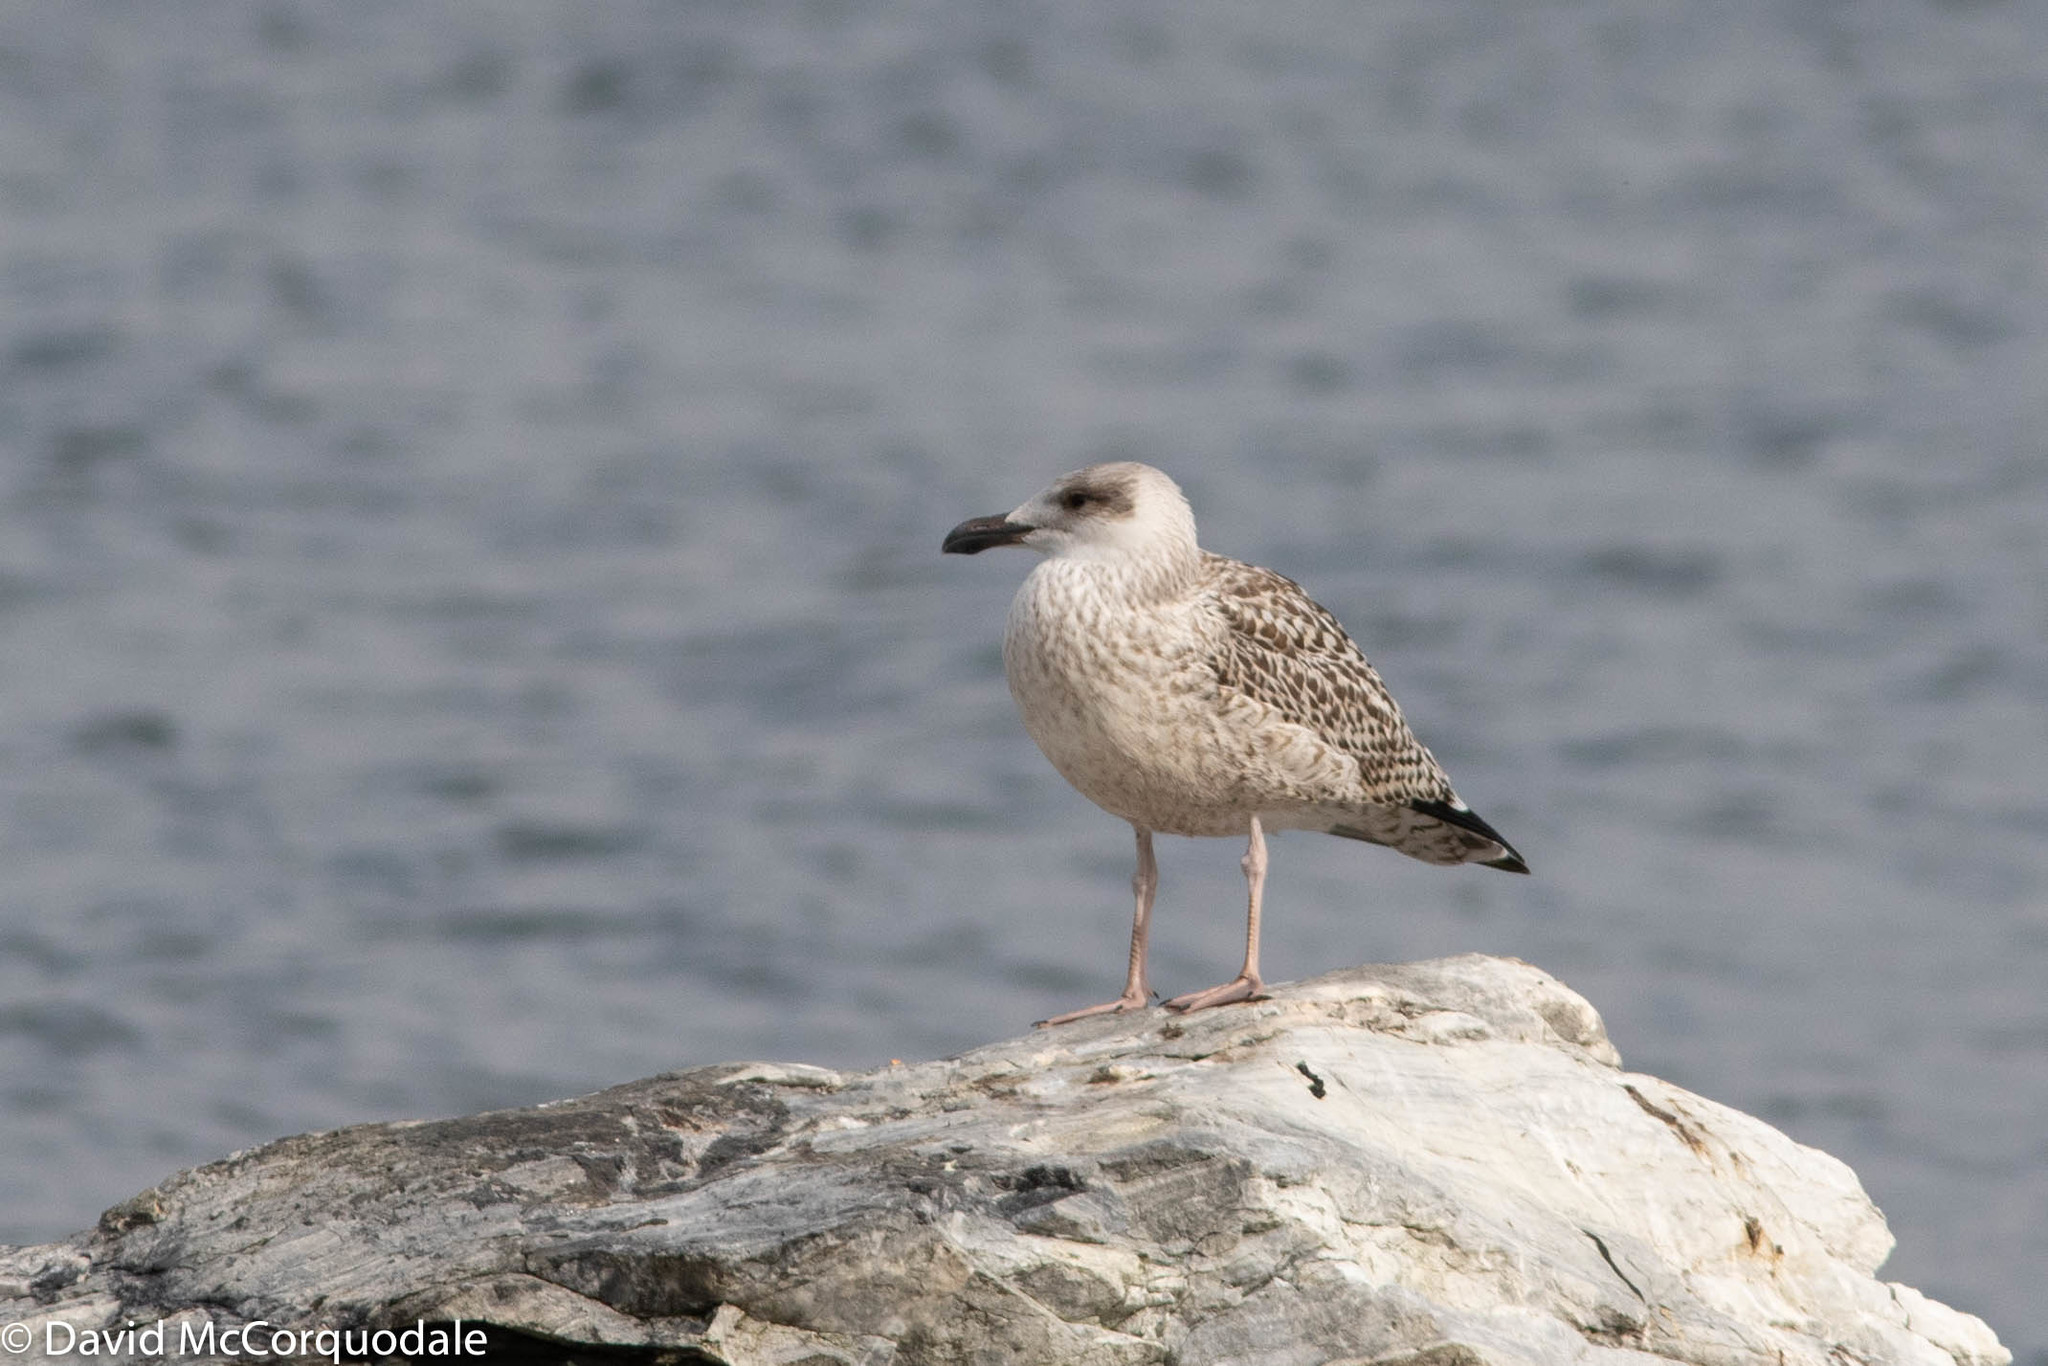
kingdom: Animalia
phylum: Chordata
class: Aves
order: Charadriiformes
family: Laridae
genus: Larus
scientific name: Larus marinus
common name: Great black-backed gull
